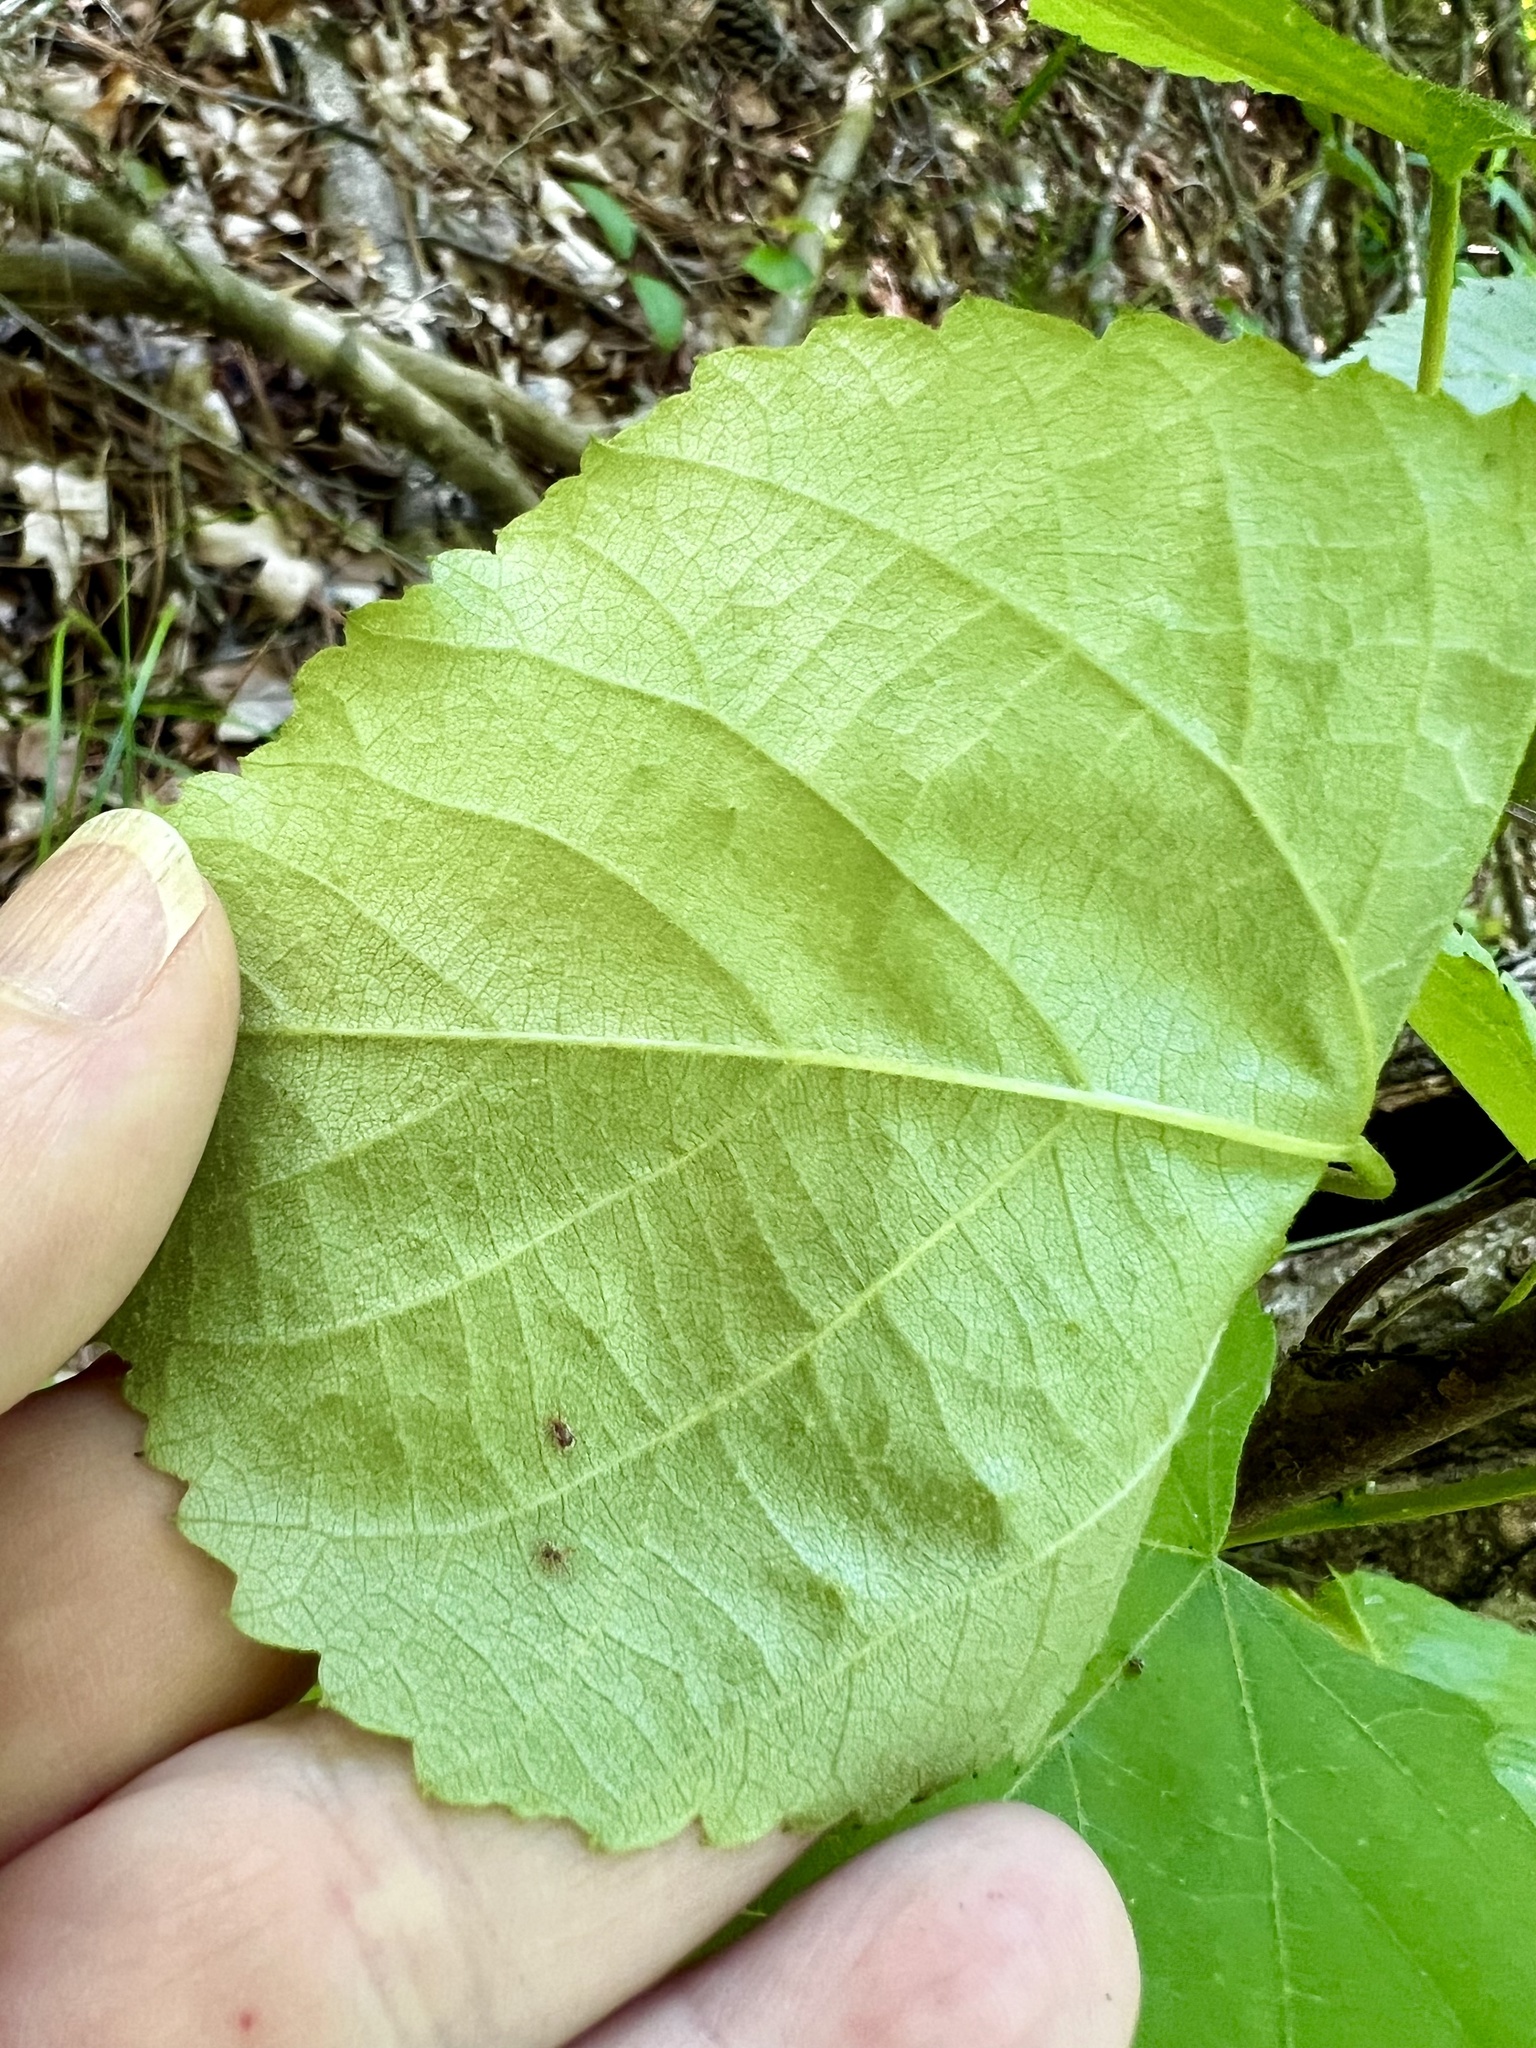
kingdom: Plantae
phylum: Tracheophyta
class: Magnoliopsida
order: Malvales
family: Malvaceae
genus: Tilia
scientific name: Tilia americana
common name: Basswood
